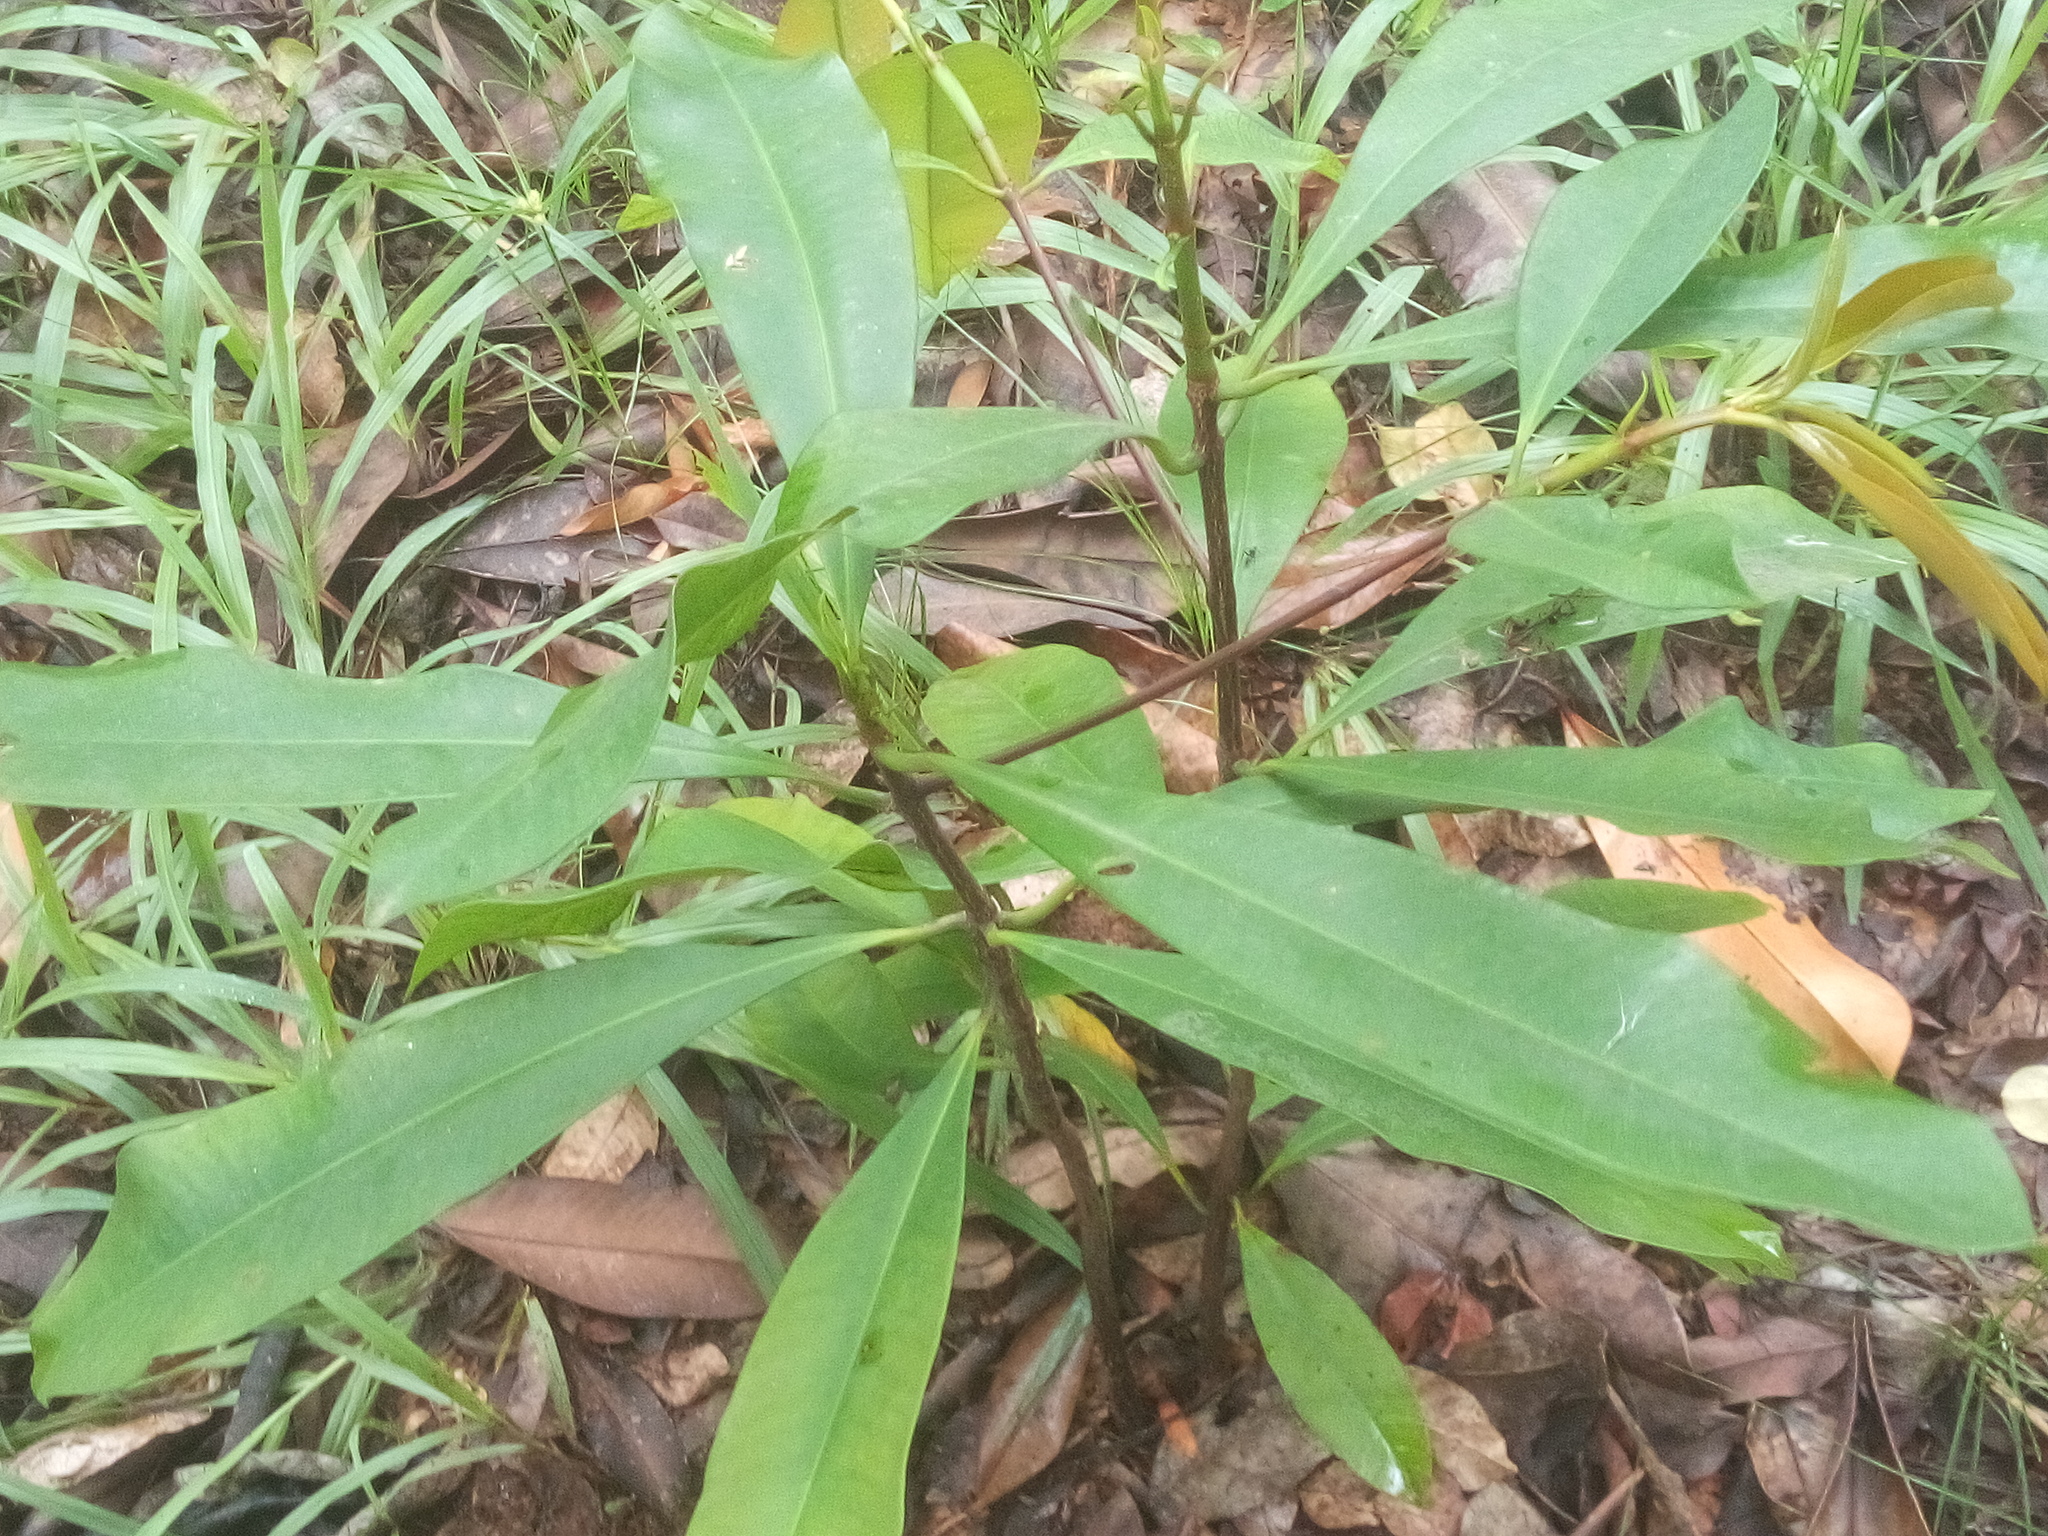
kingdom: Plantae
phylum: Tracheophyta
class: Magnoliopsida
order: Malpighiales
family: Clusiaceae
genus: Pentadesma
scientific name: Pentadesma butyracea
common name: Buttertree
